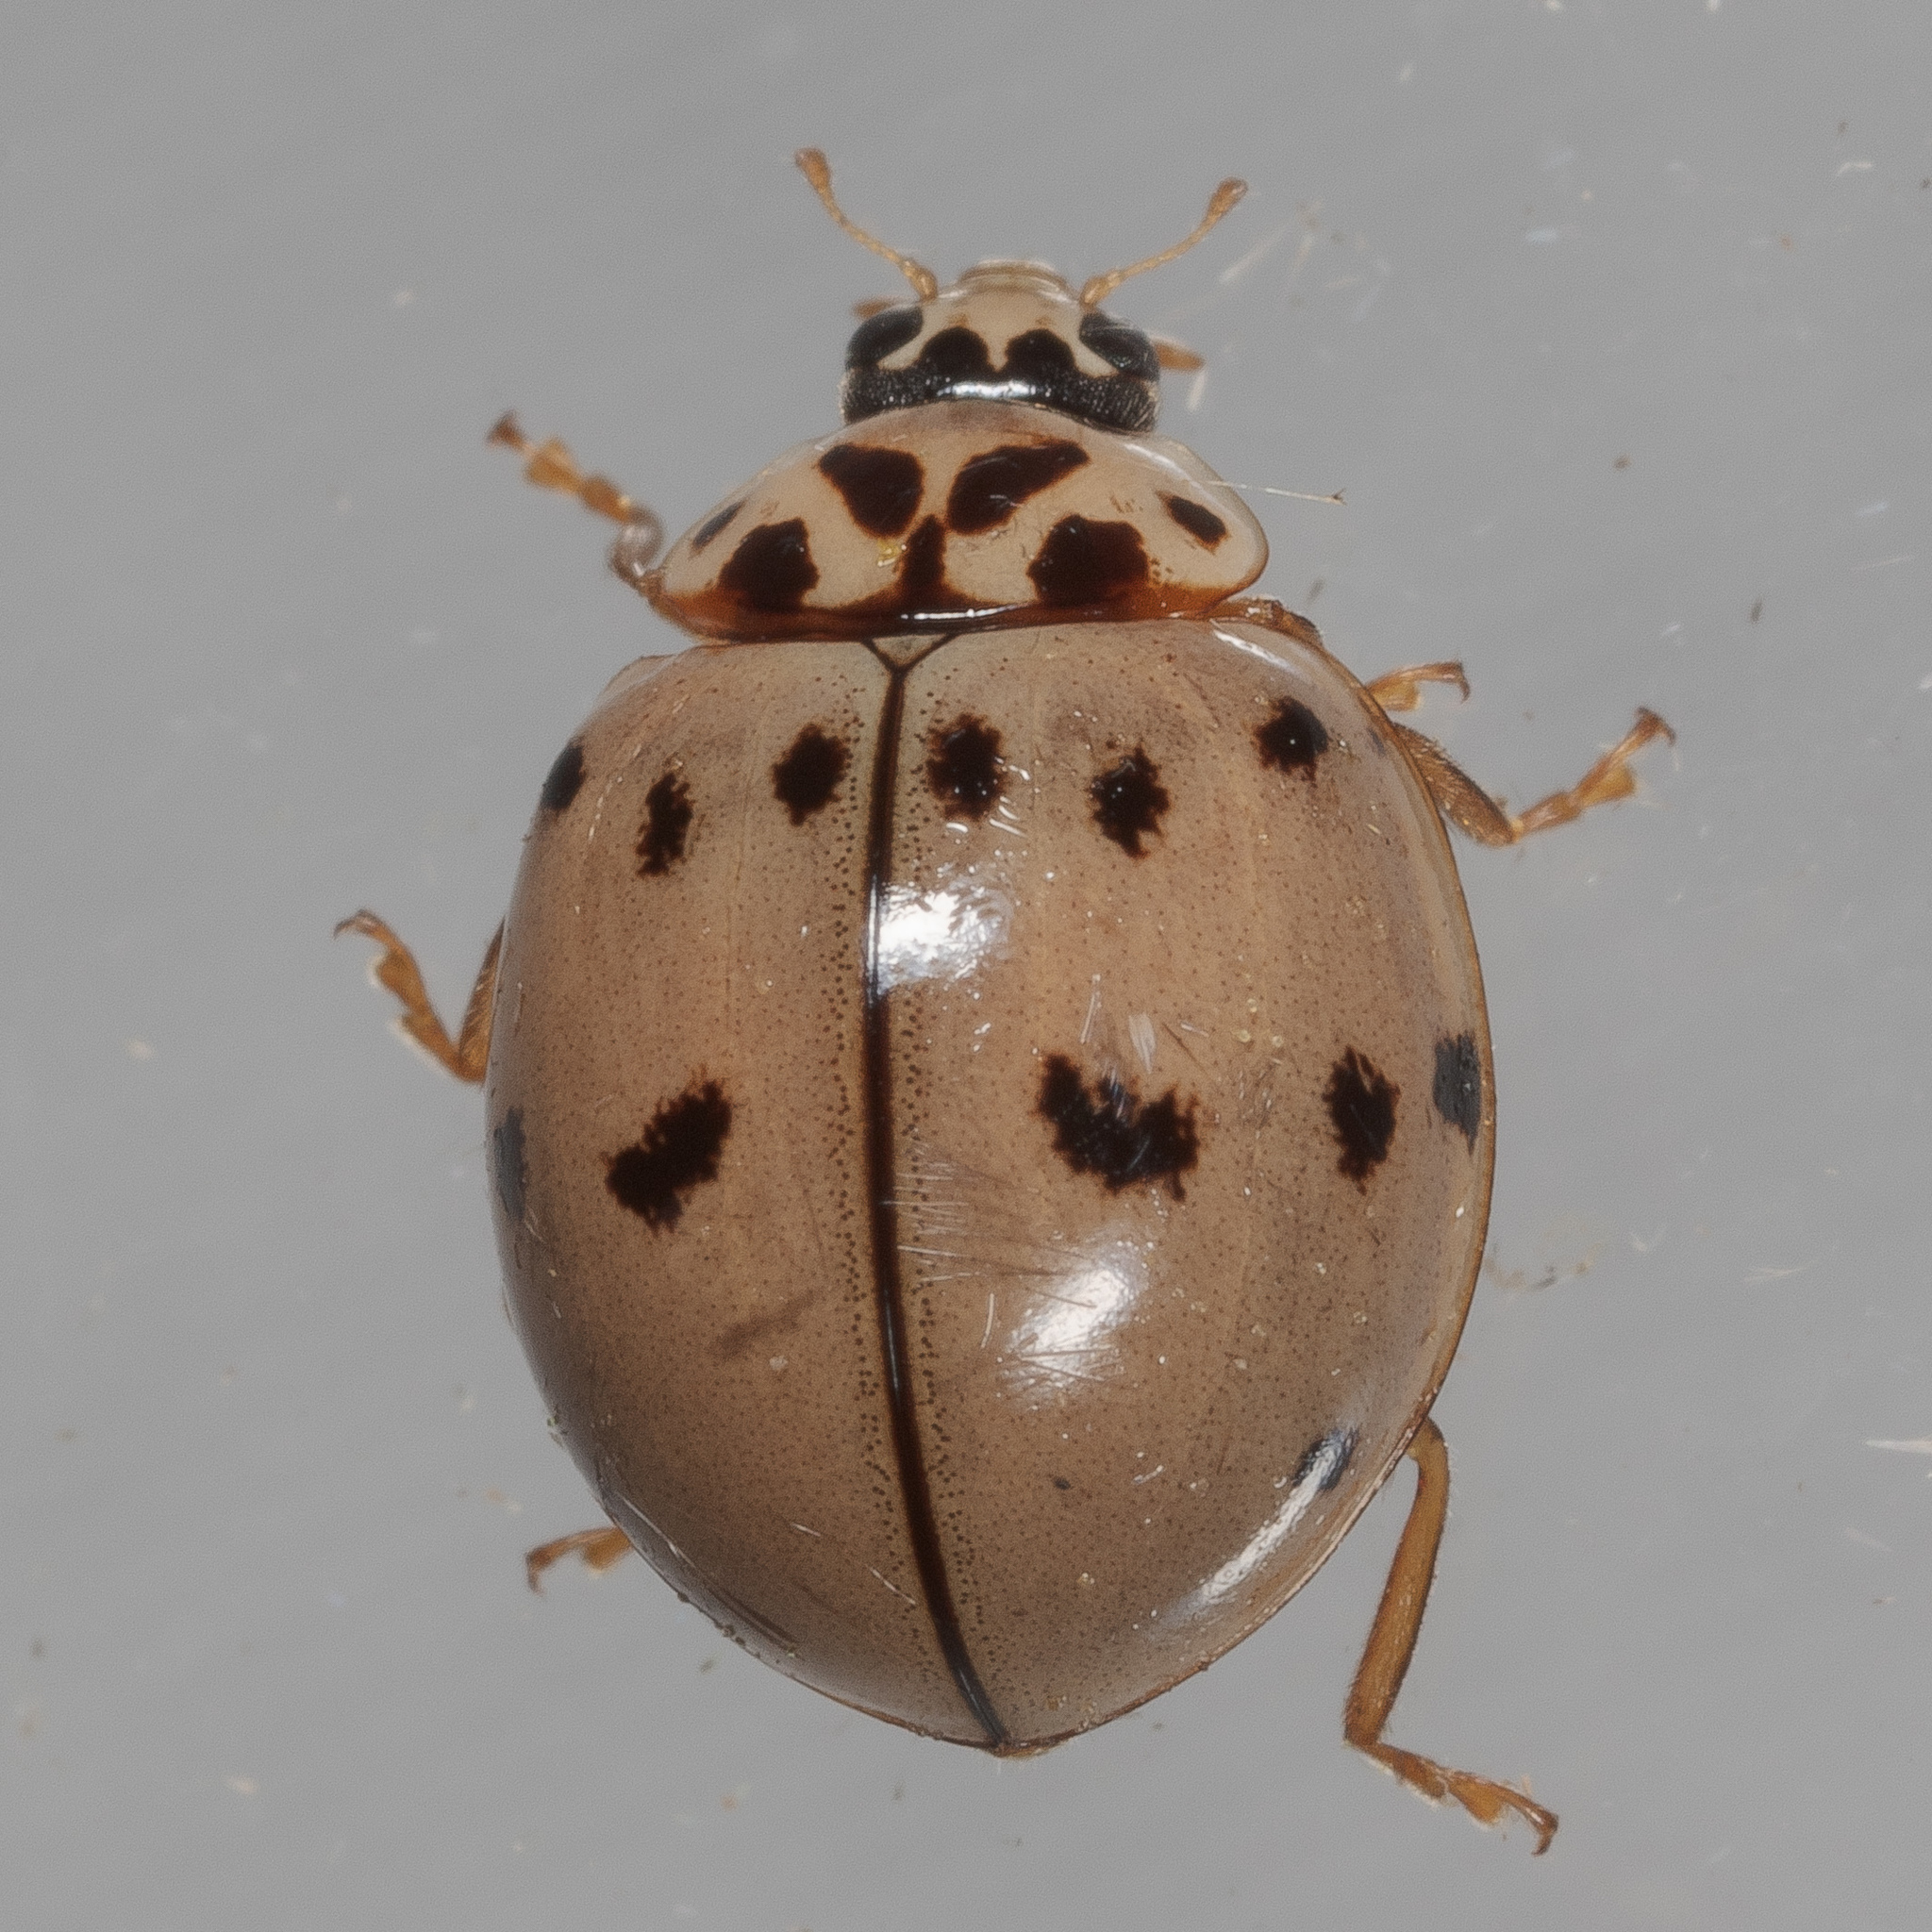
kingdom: Animalia
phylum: Arthropoda
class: Insecta
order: Coleoptera
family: Coccinellidae
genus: Olla
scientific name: Olla v-nigrum
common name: Ashy gray lady beetle
